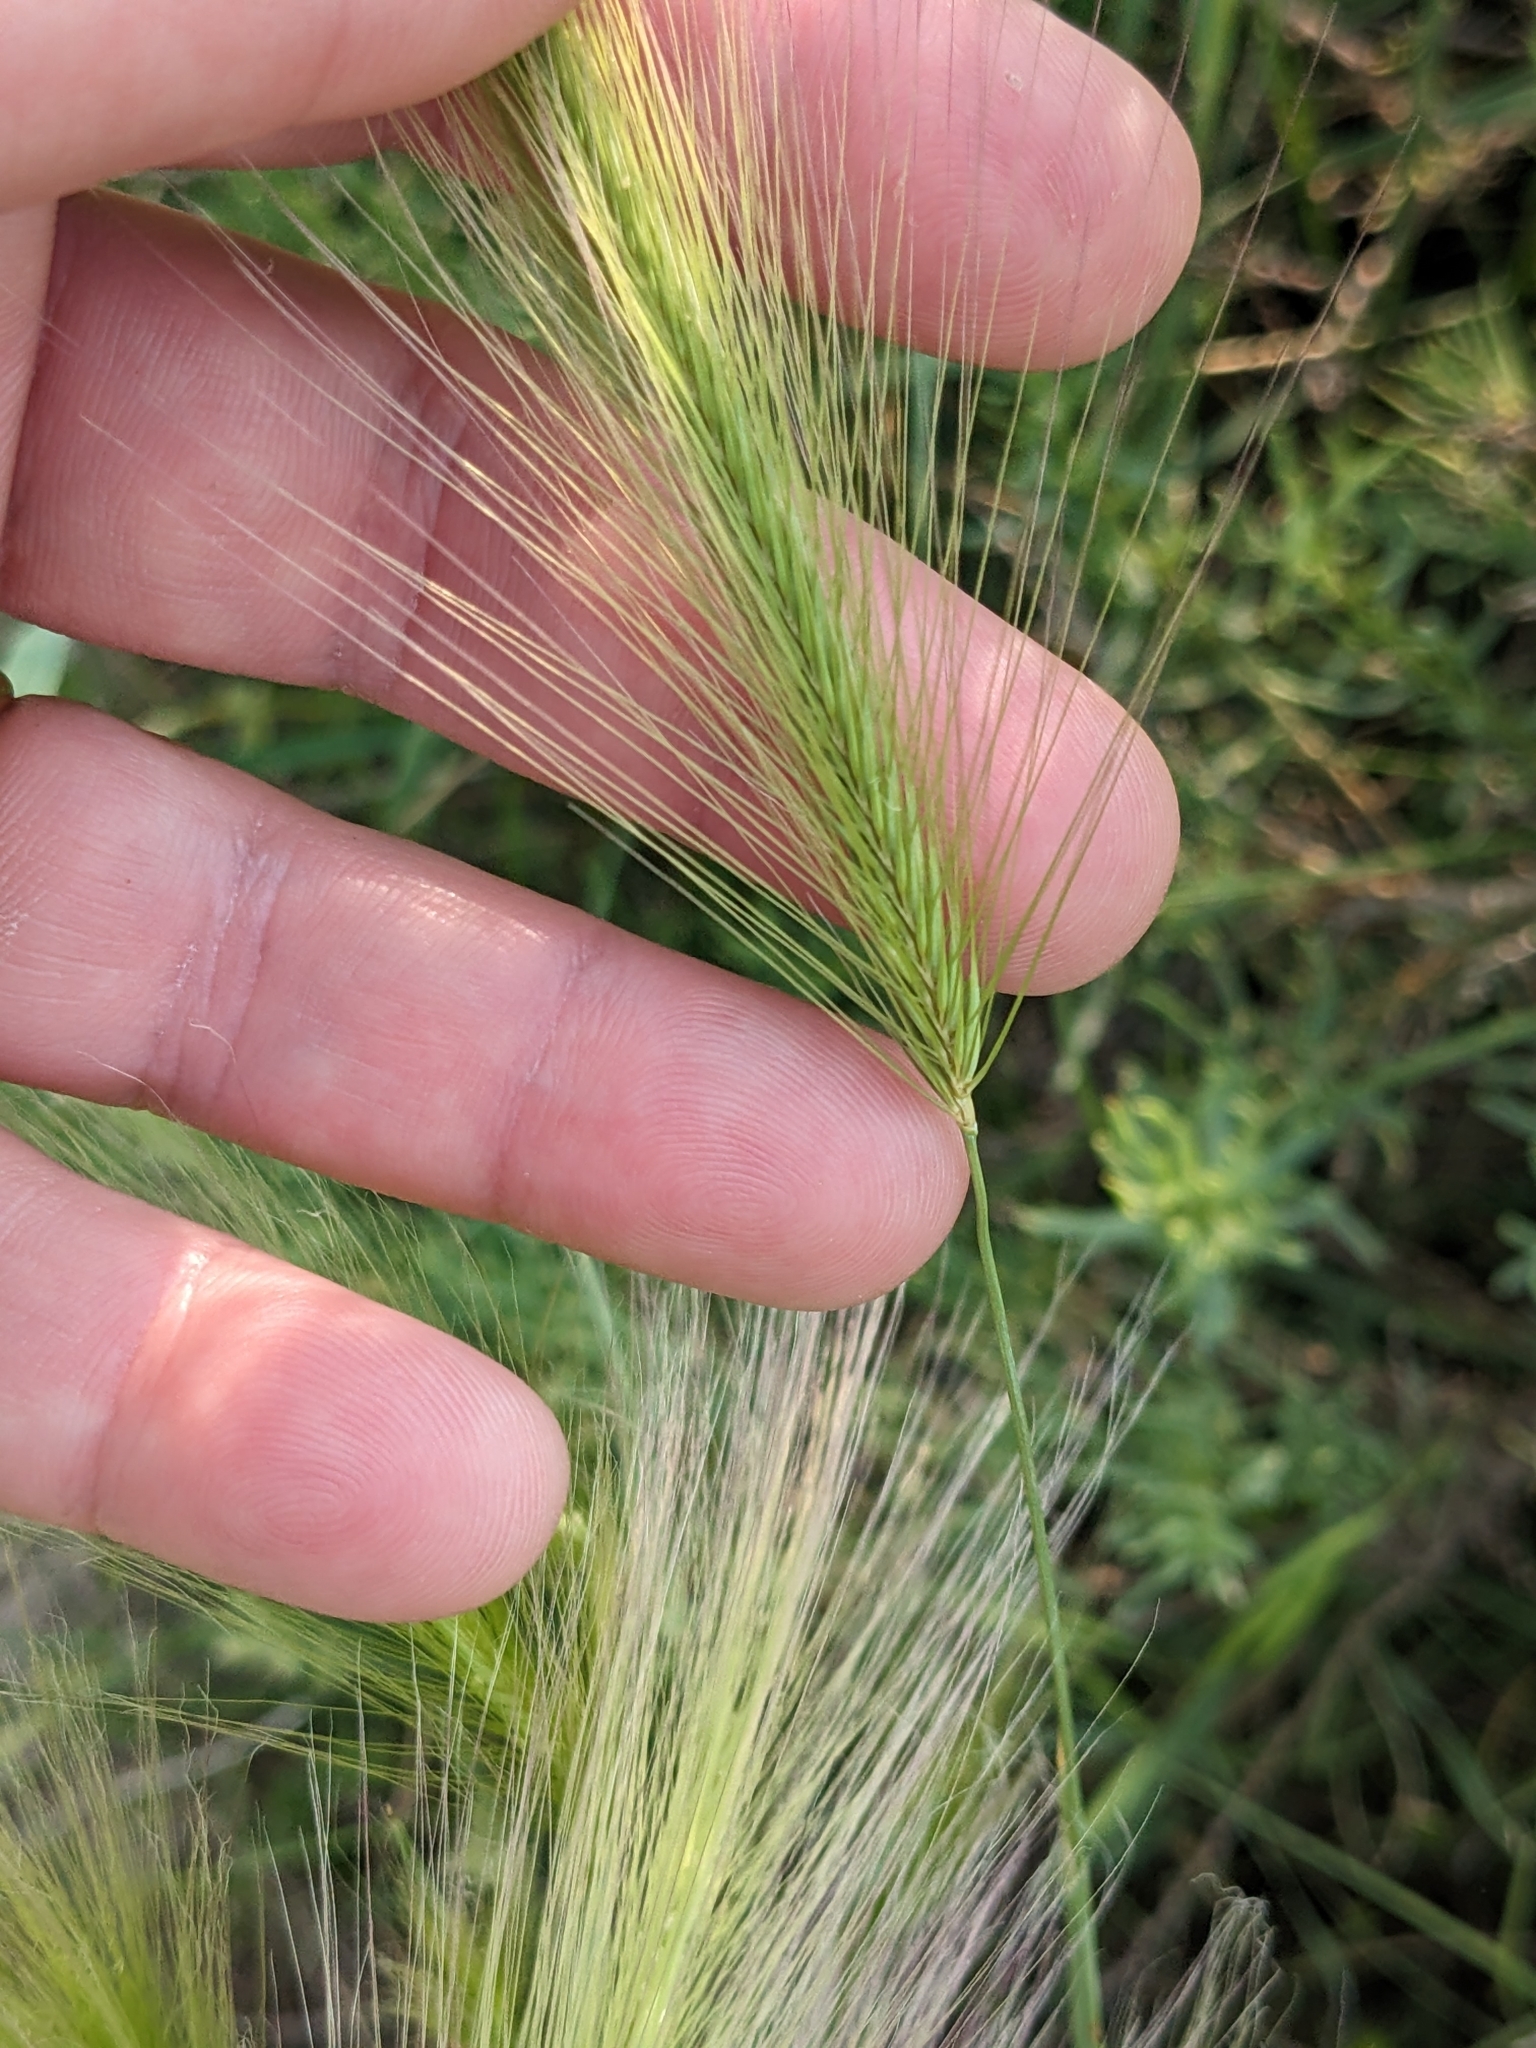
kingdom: Plantae
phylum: Tracheophyta
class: Liliopsida
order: Poales
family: Poaceae
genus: Hordeum
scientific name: Hordeum jubatum
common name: Foxtail barley
